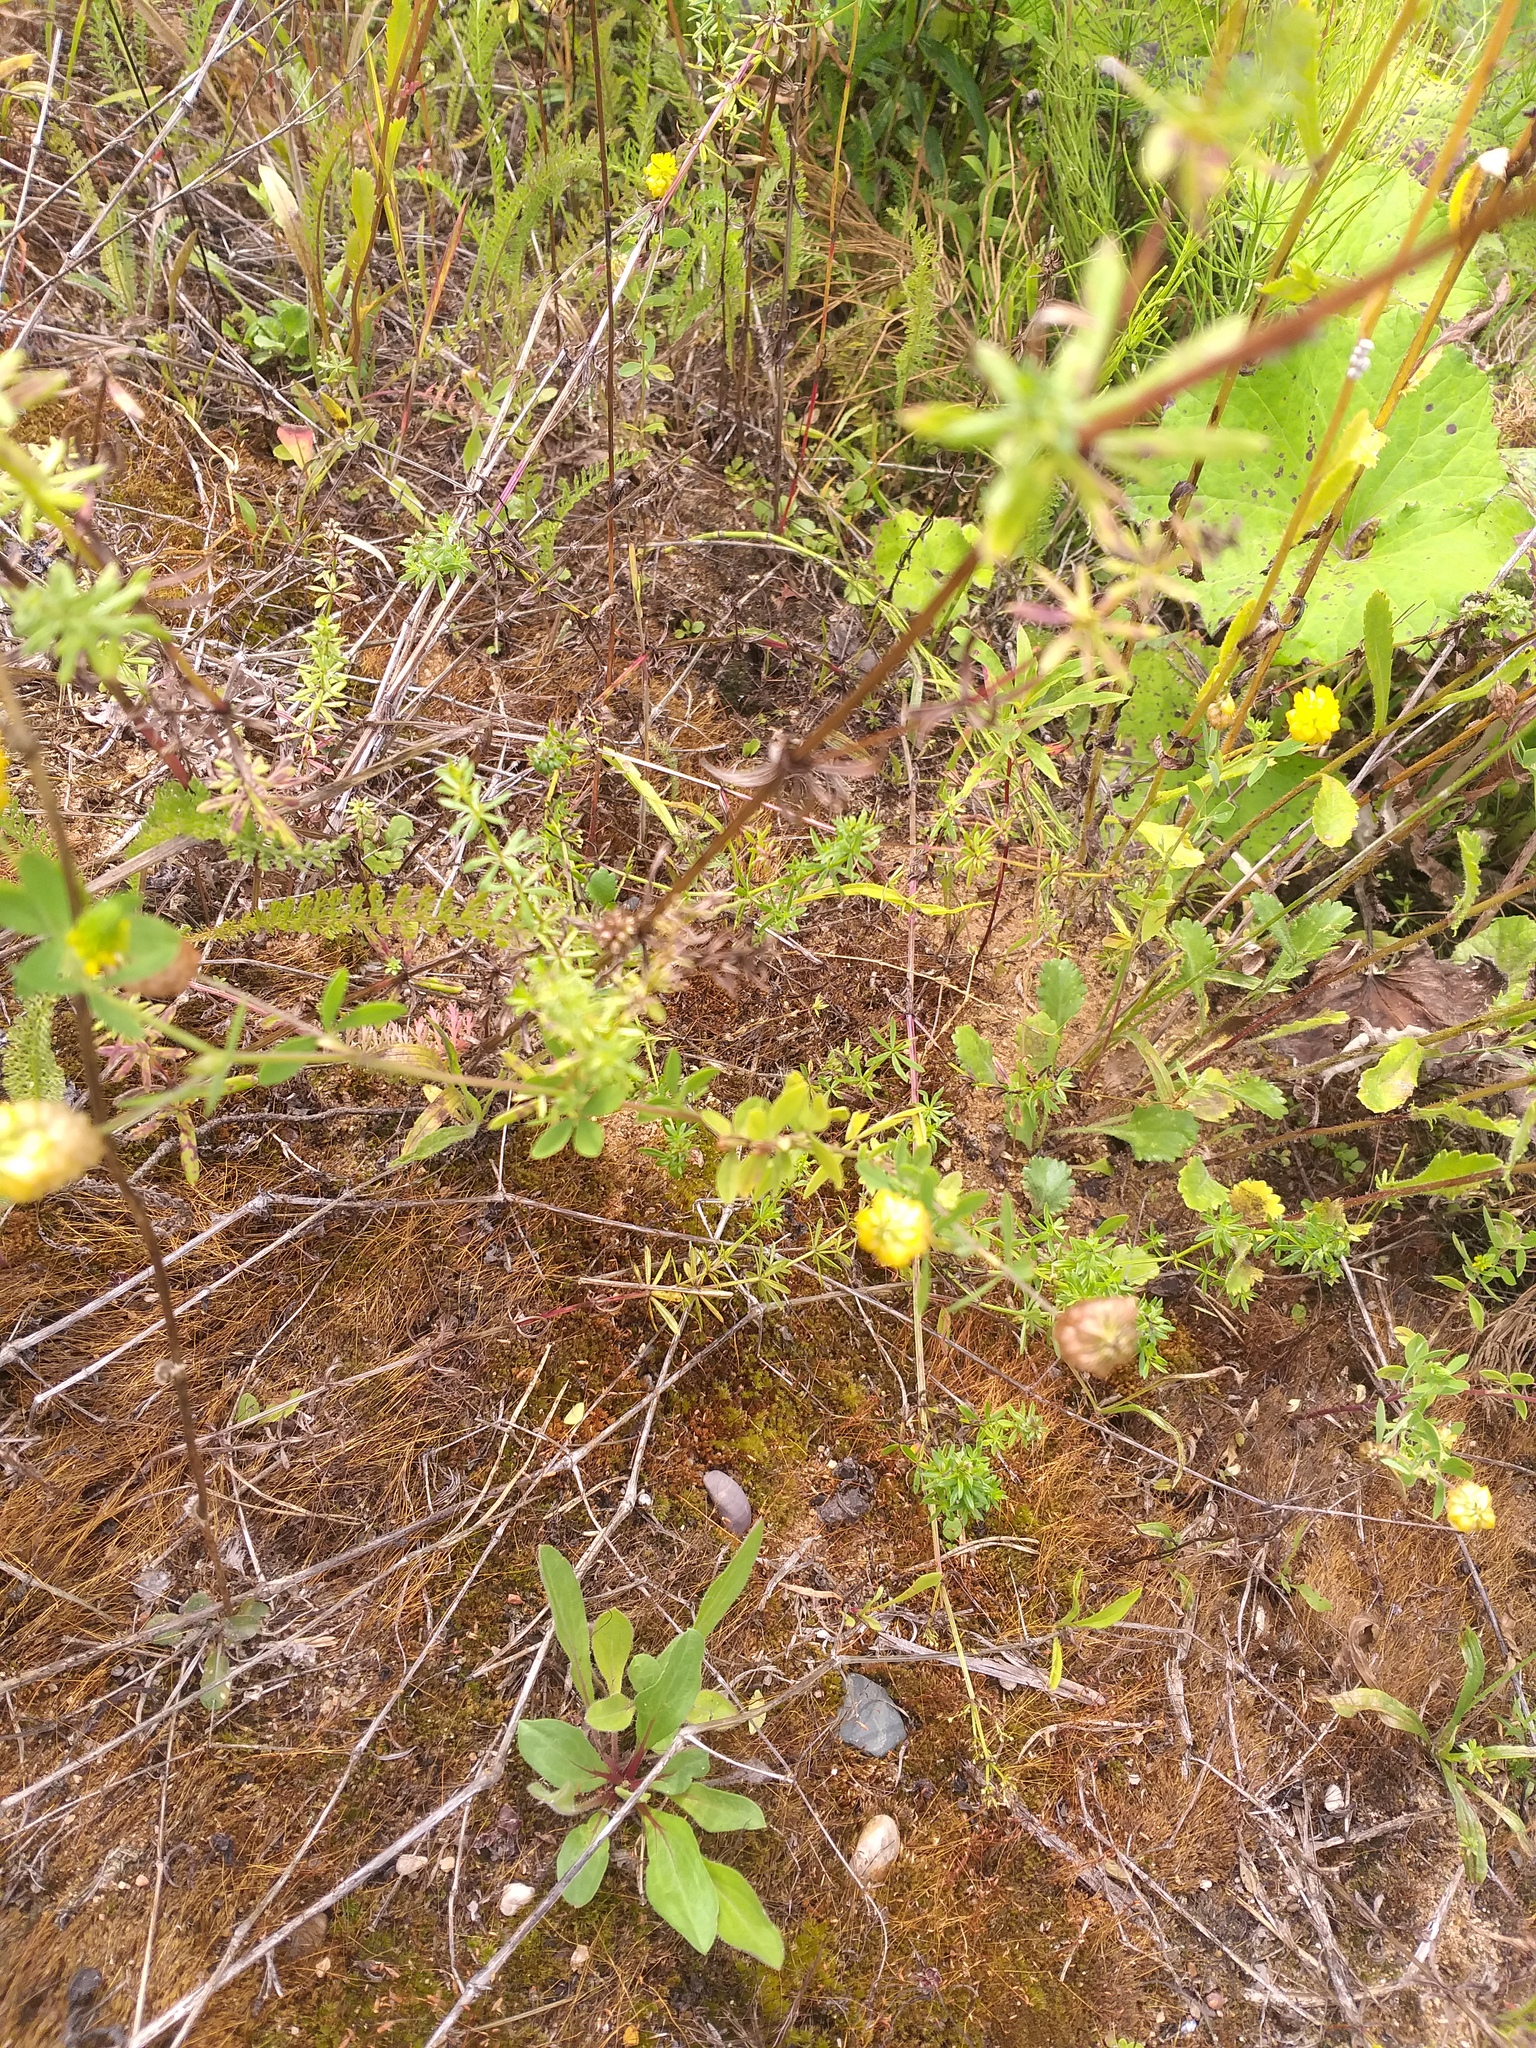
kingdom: Plantae
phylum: Tracheophyta
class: Magnoliopsida
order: Fabales
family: Fabaceae
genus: Trifolium
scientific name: Trifolium aureum
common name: Golden clover
